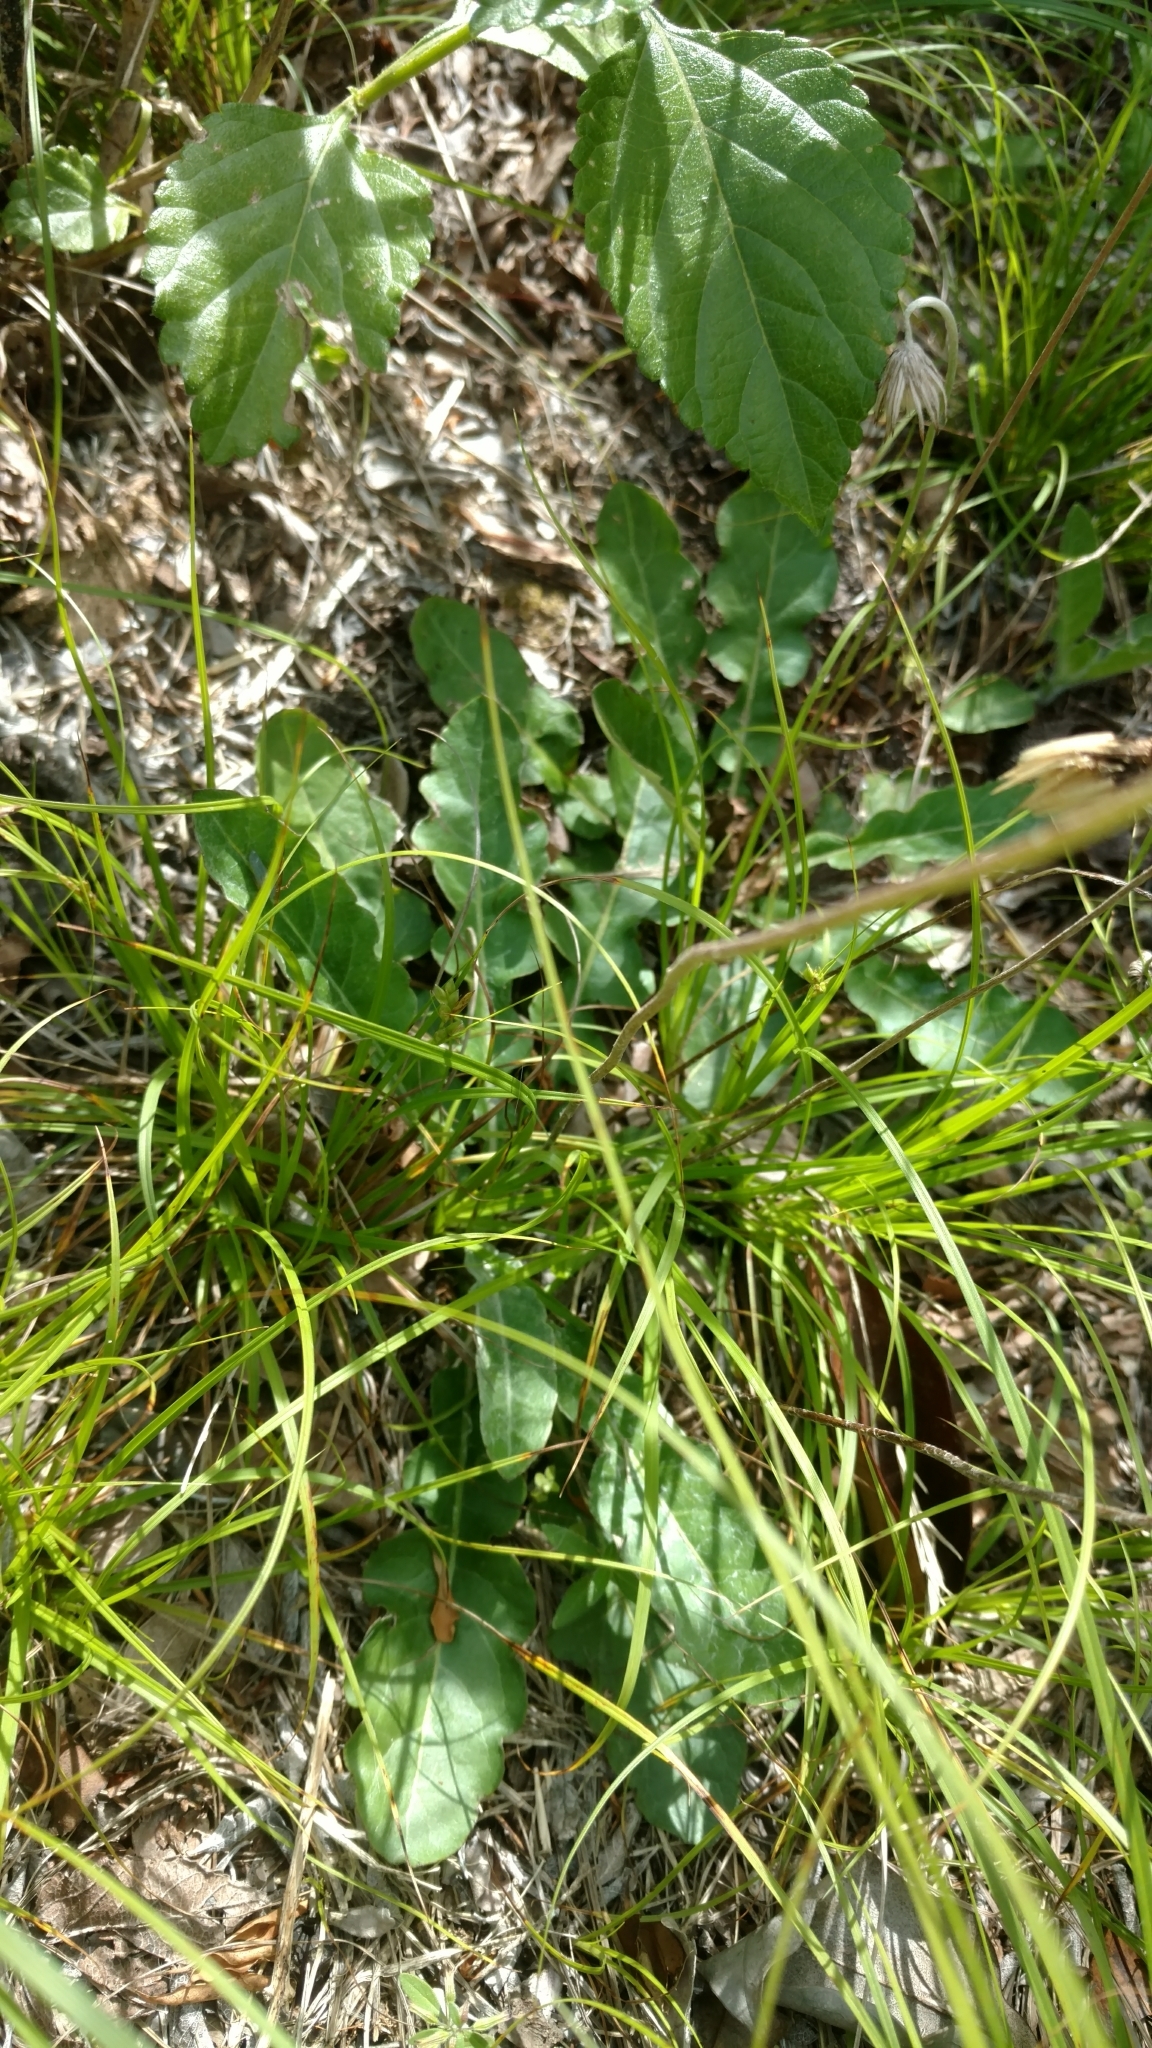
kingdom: Plantae
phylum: Tracheophyta
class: Magnoliopsida
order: Asterales
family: Asteraceae
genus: Chaptalia
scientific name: Chaptalia texana
